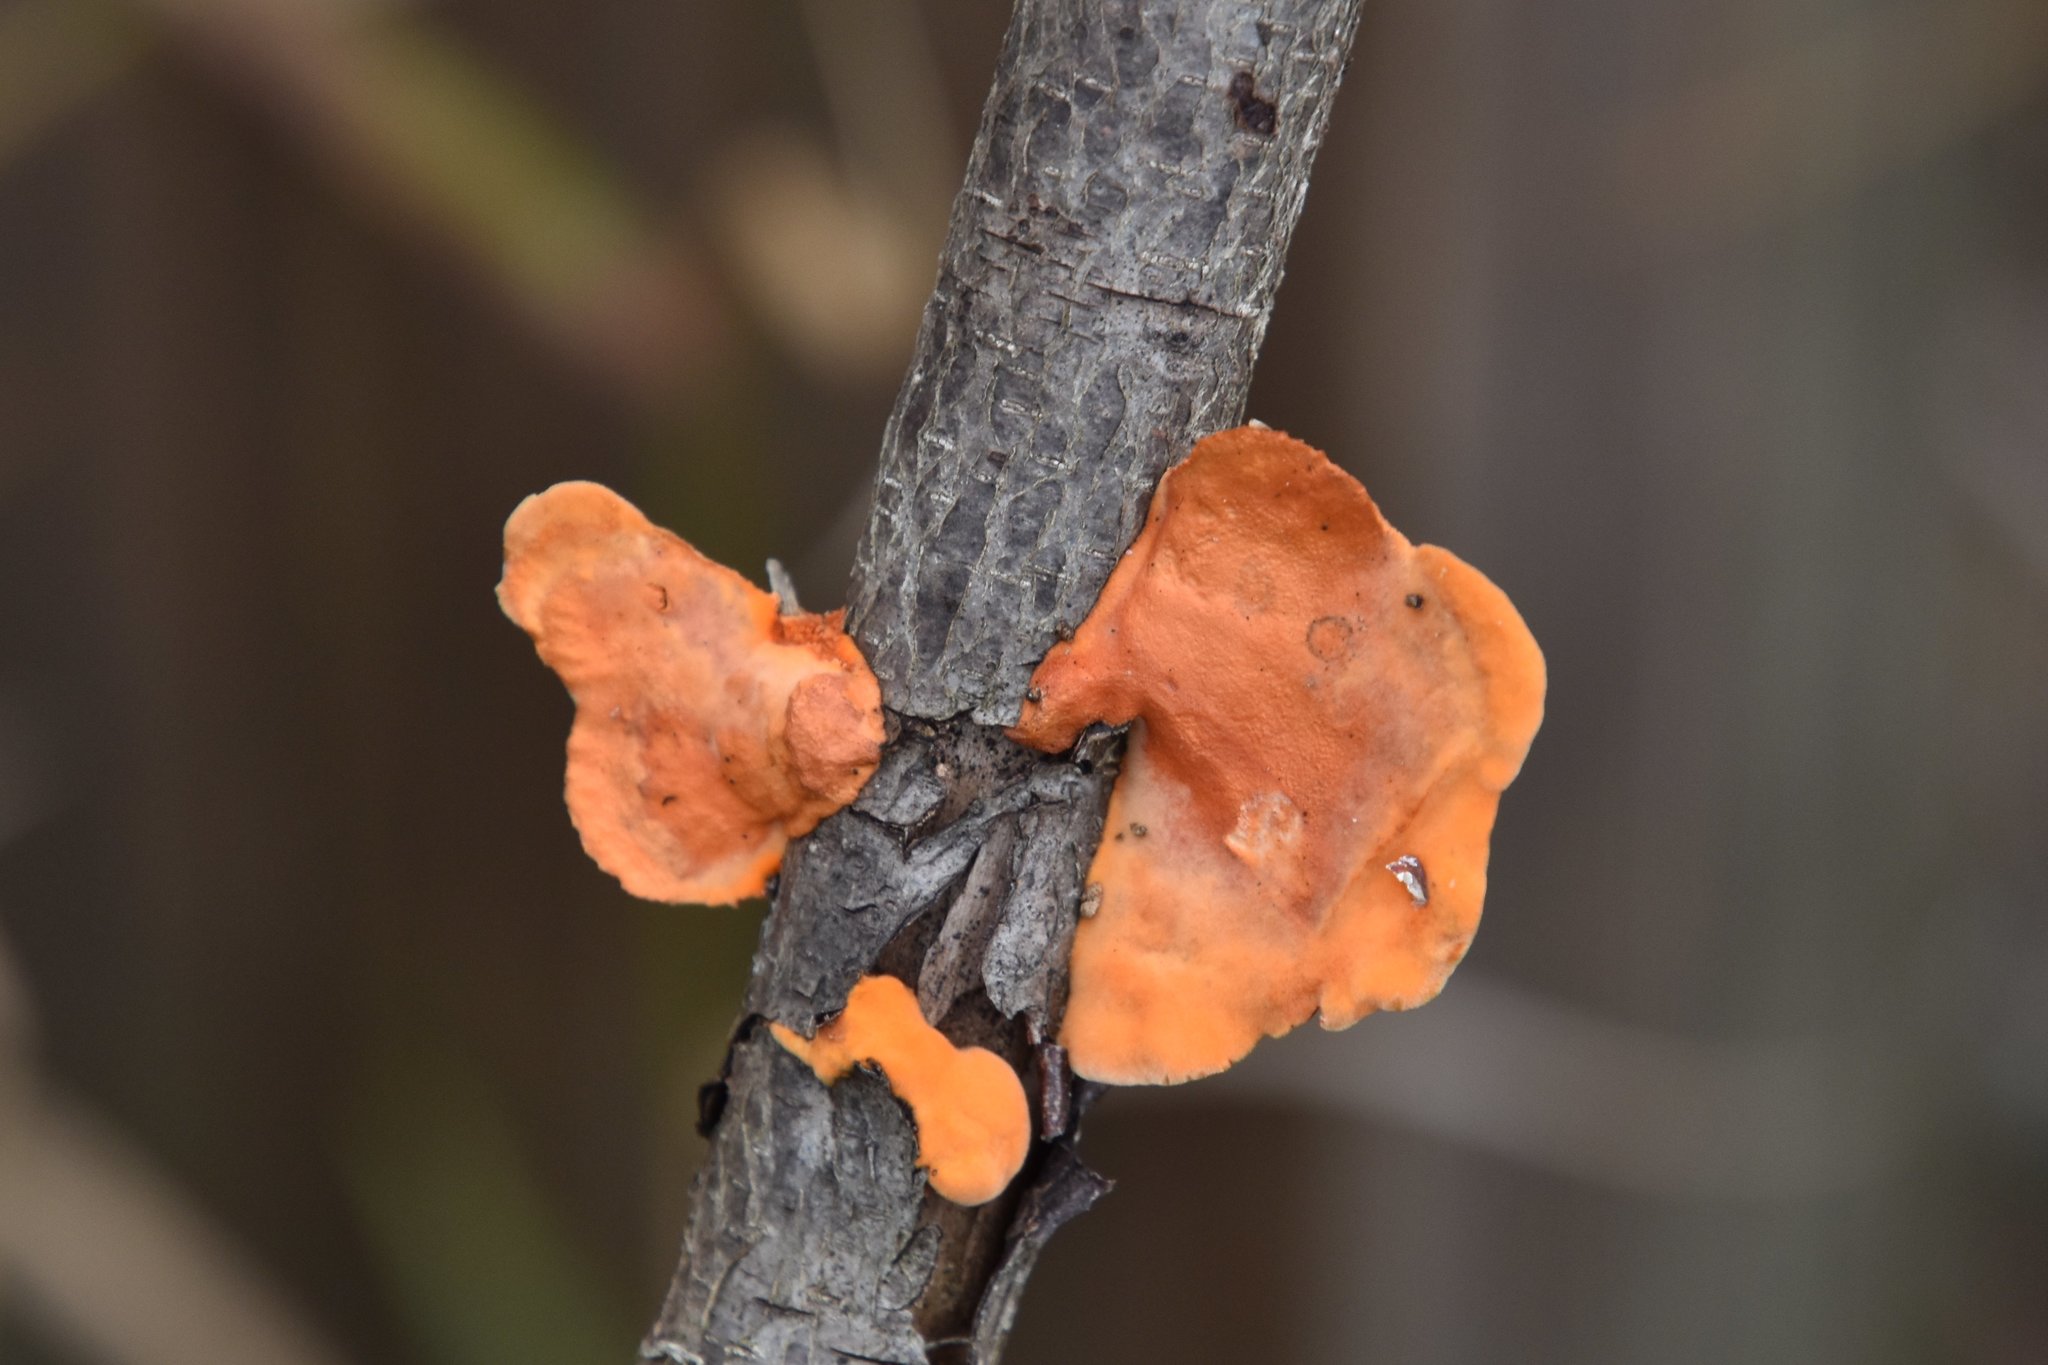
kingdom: Fungi
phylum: Basidiomycota
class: Agaricomycetes
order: Polyporales
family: Polyporaceae
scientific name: Polyporaceae
